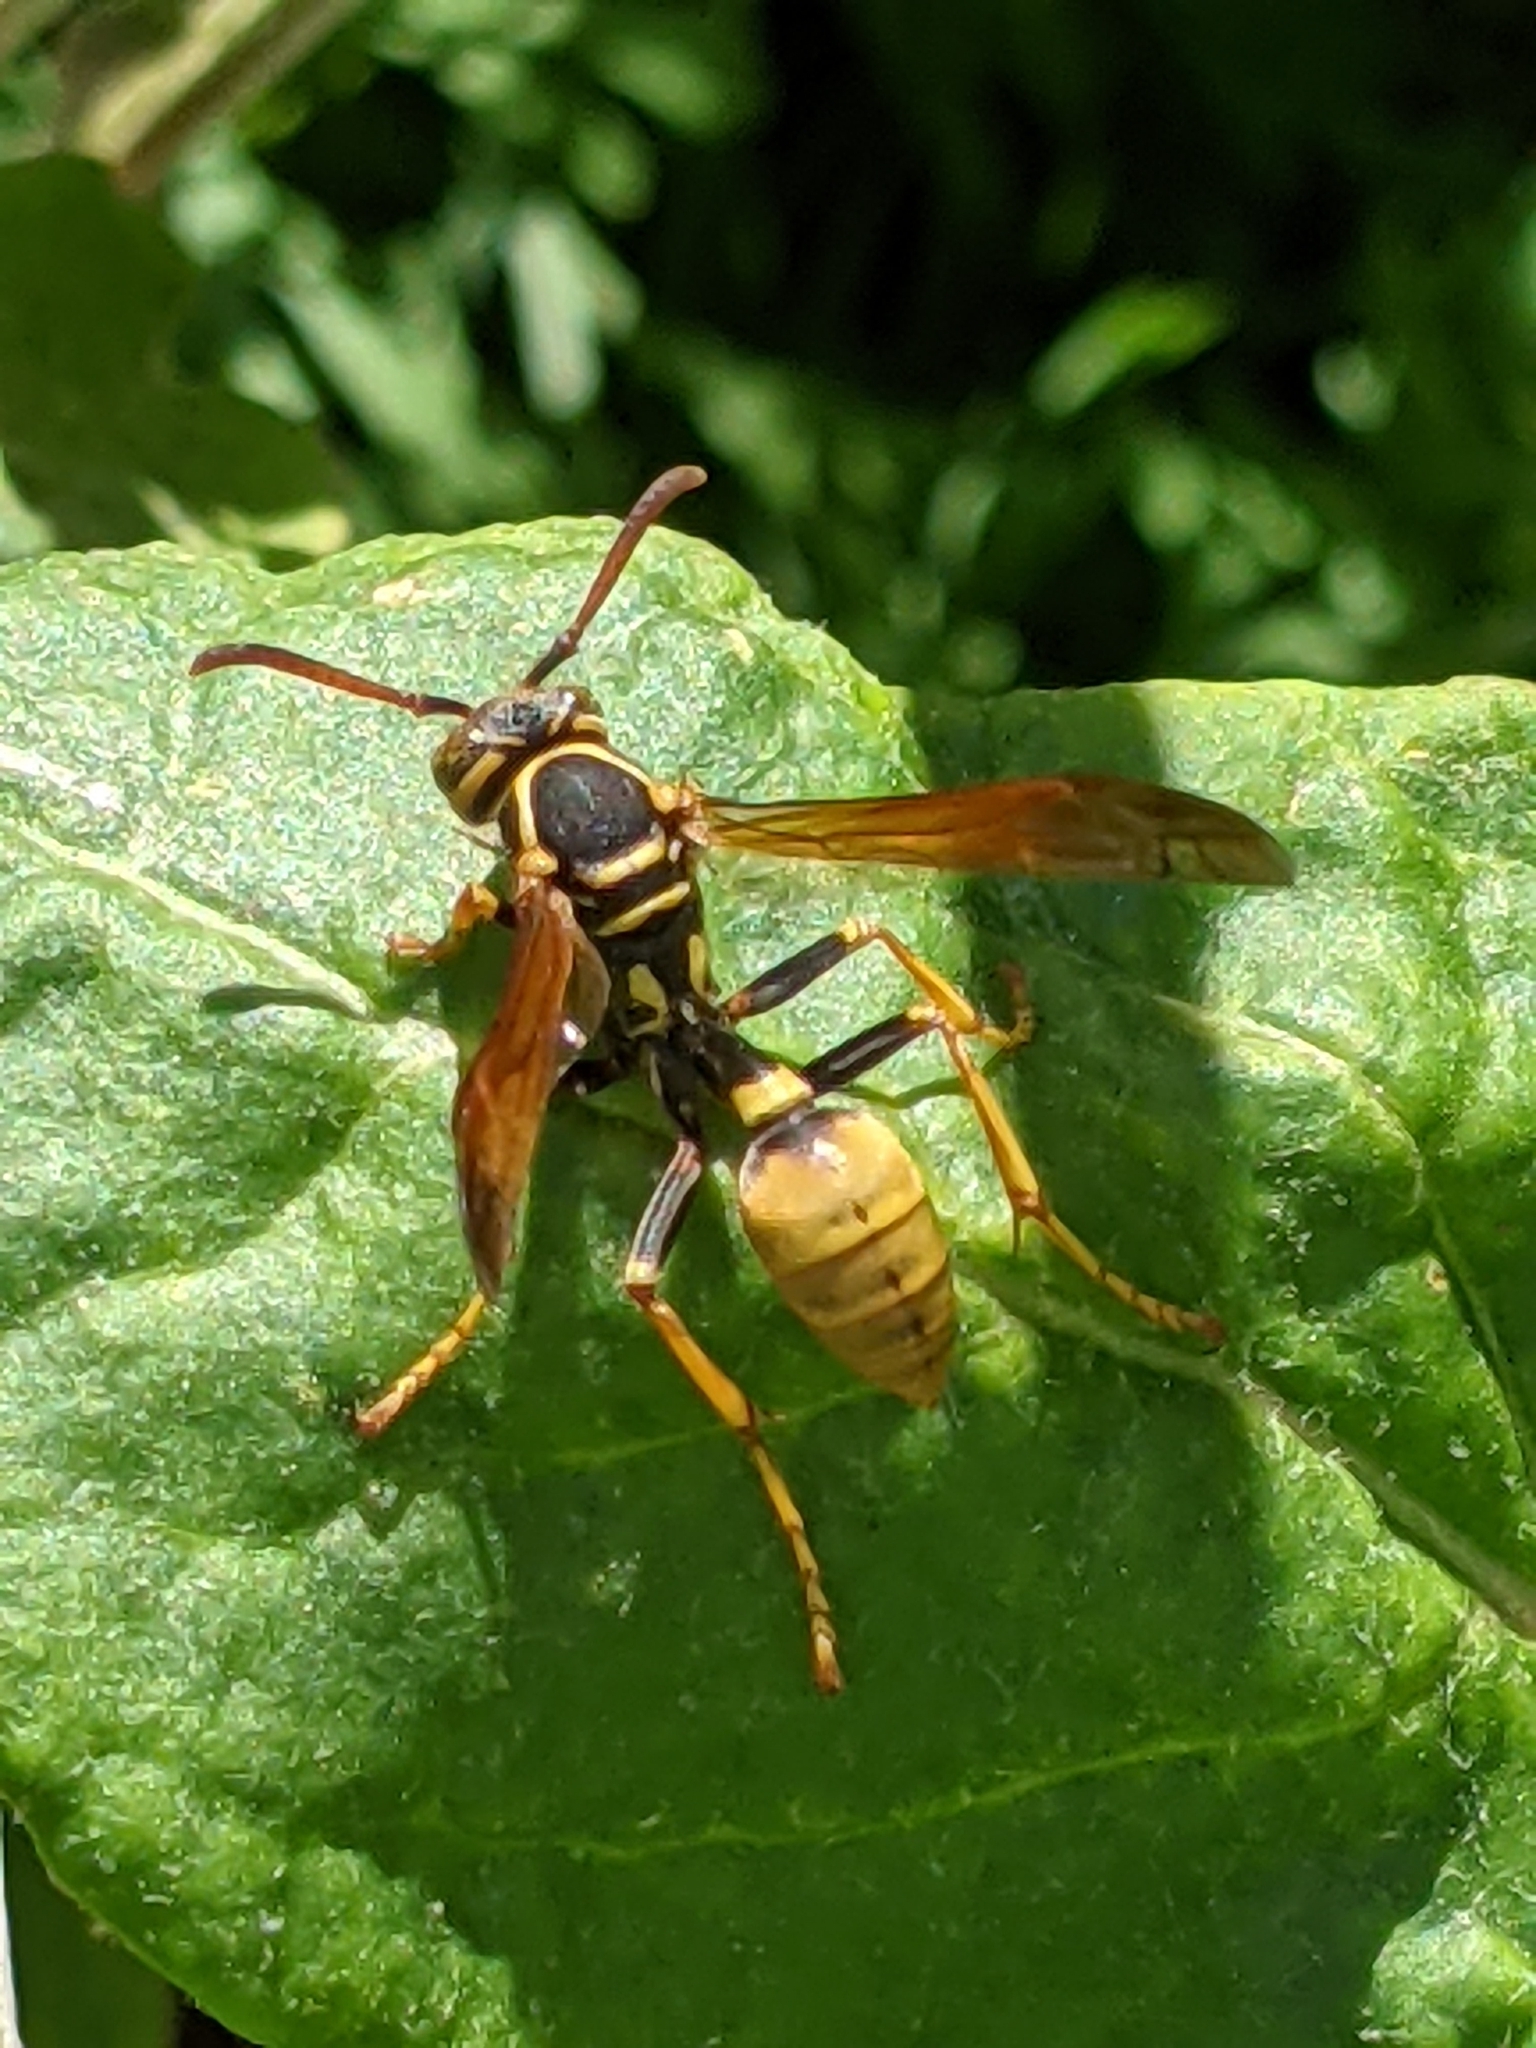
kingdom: Animalia
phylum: Arthropoda
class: Insecta
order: Hymenoptera
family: Vespidae
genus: Mischocyttarus
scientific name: Mischocyttarus flavitarsis
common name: Wasp
